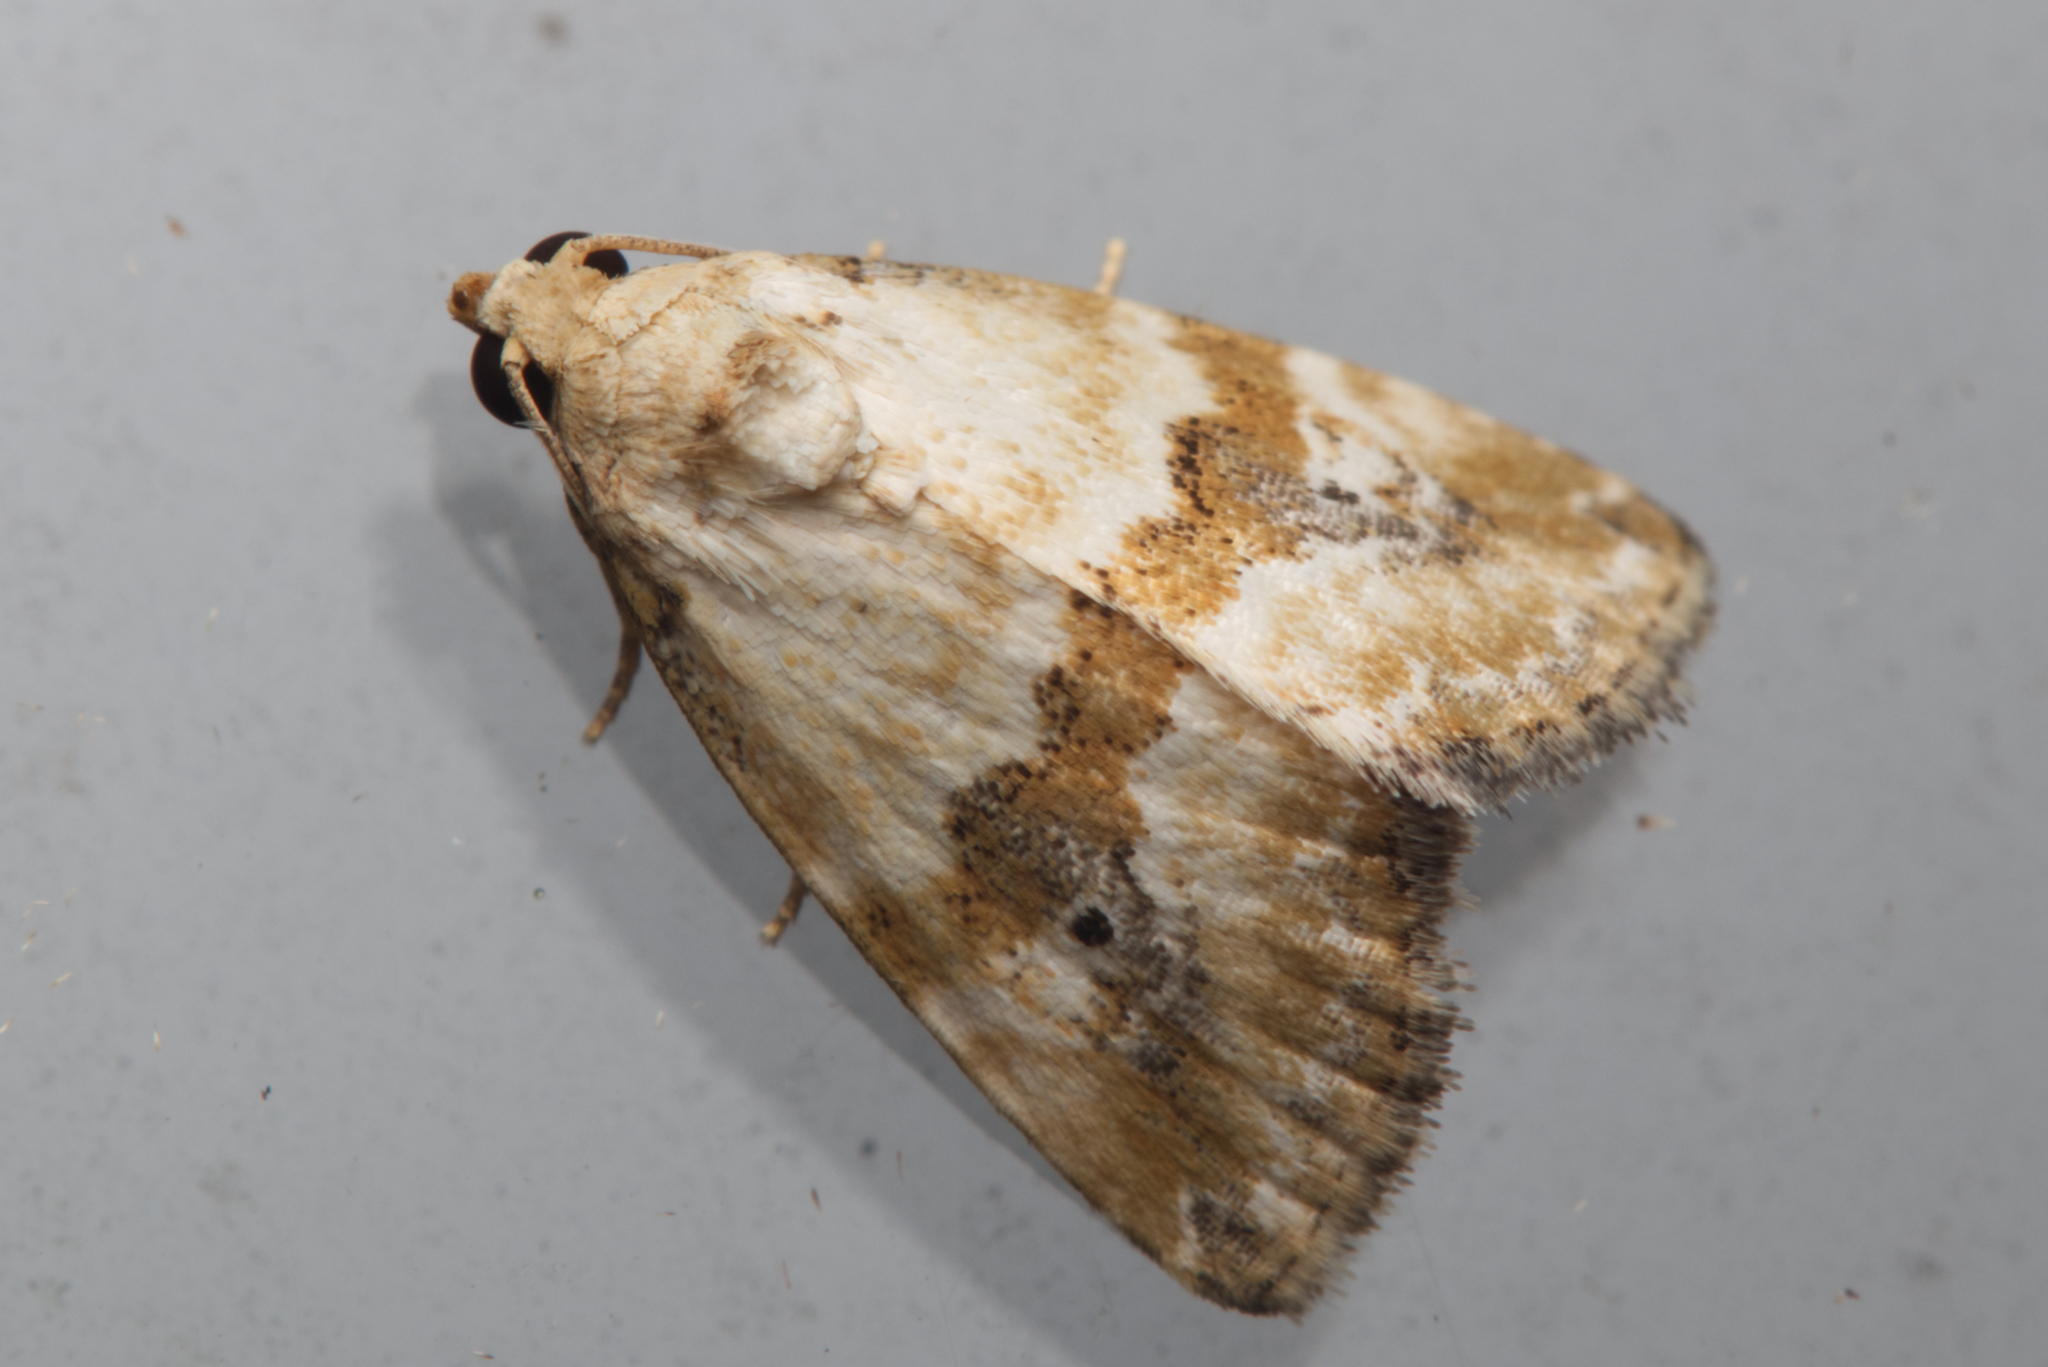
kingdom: Animalia
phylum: Arthropoda
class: Insecta
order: Lepidoptera
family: Noctuidae
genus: Maliattha
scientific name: Maliattha amorpha
